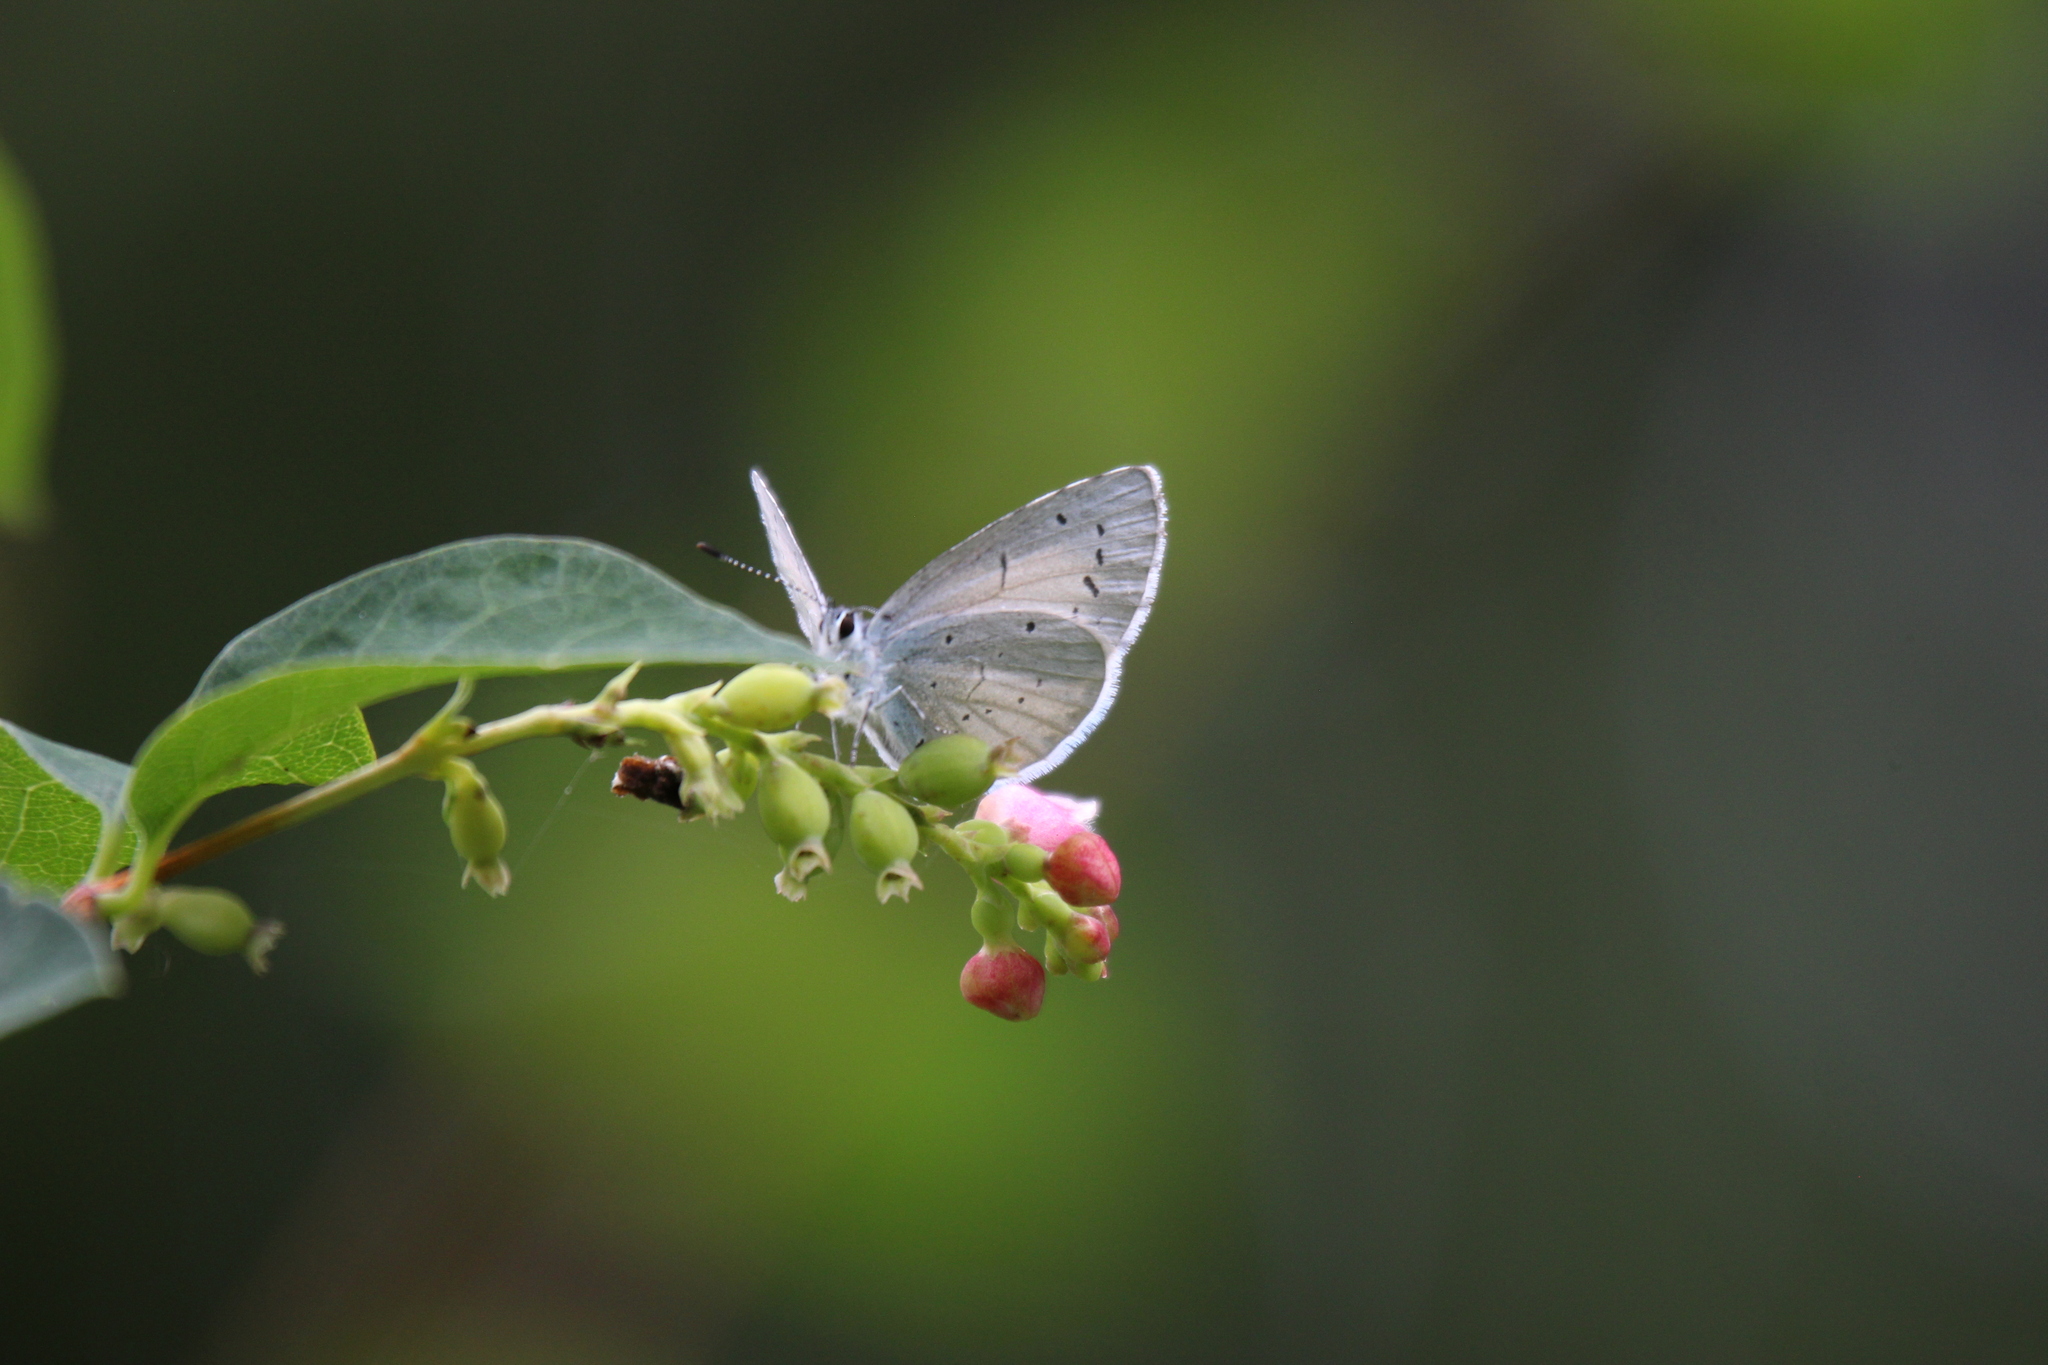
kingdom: Animalia
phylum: Arthropoda
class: Insecta
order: Lepidoptera
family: Lycaenidae
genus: Celastrina
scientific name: Celastrina argiolus
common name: Holly blue
